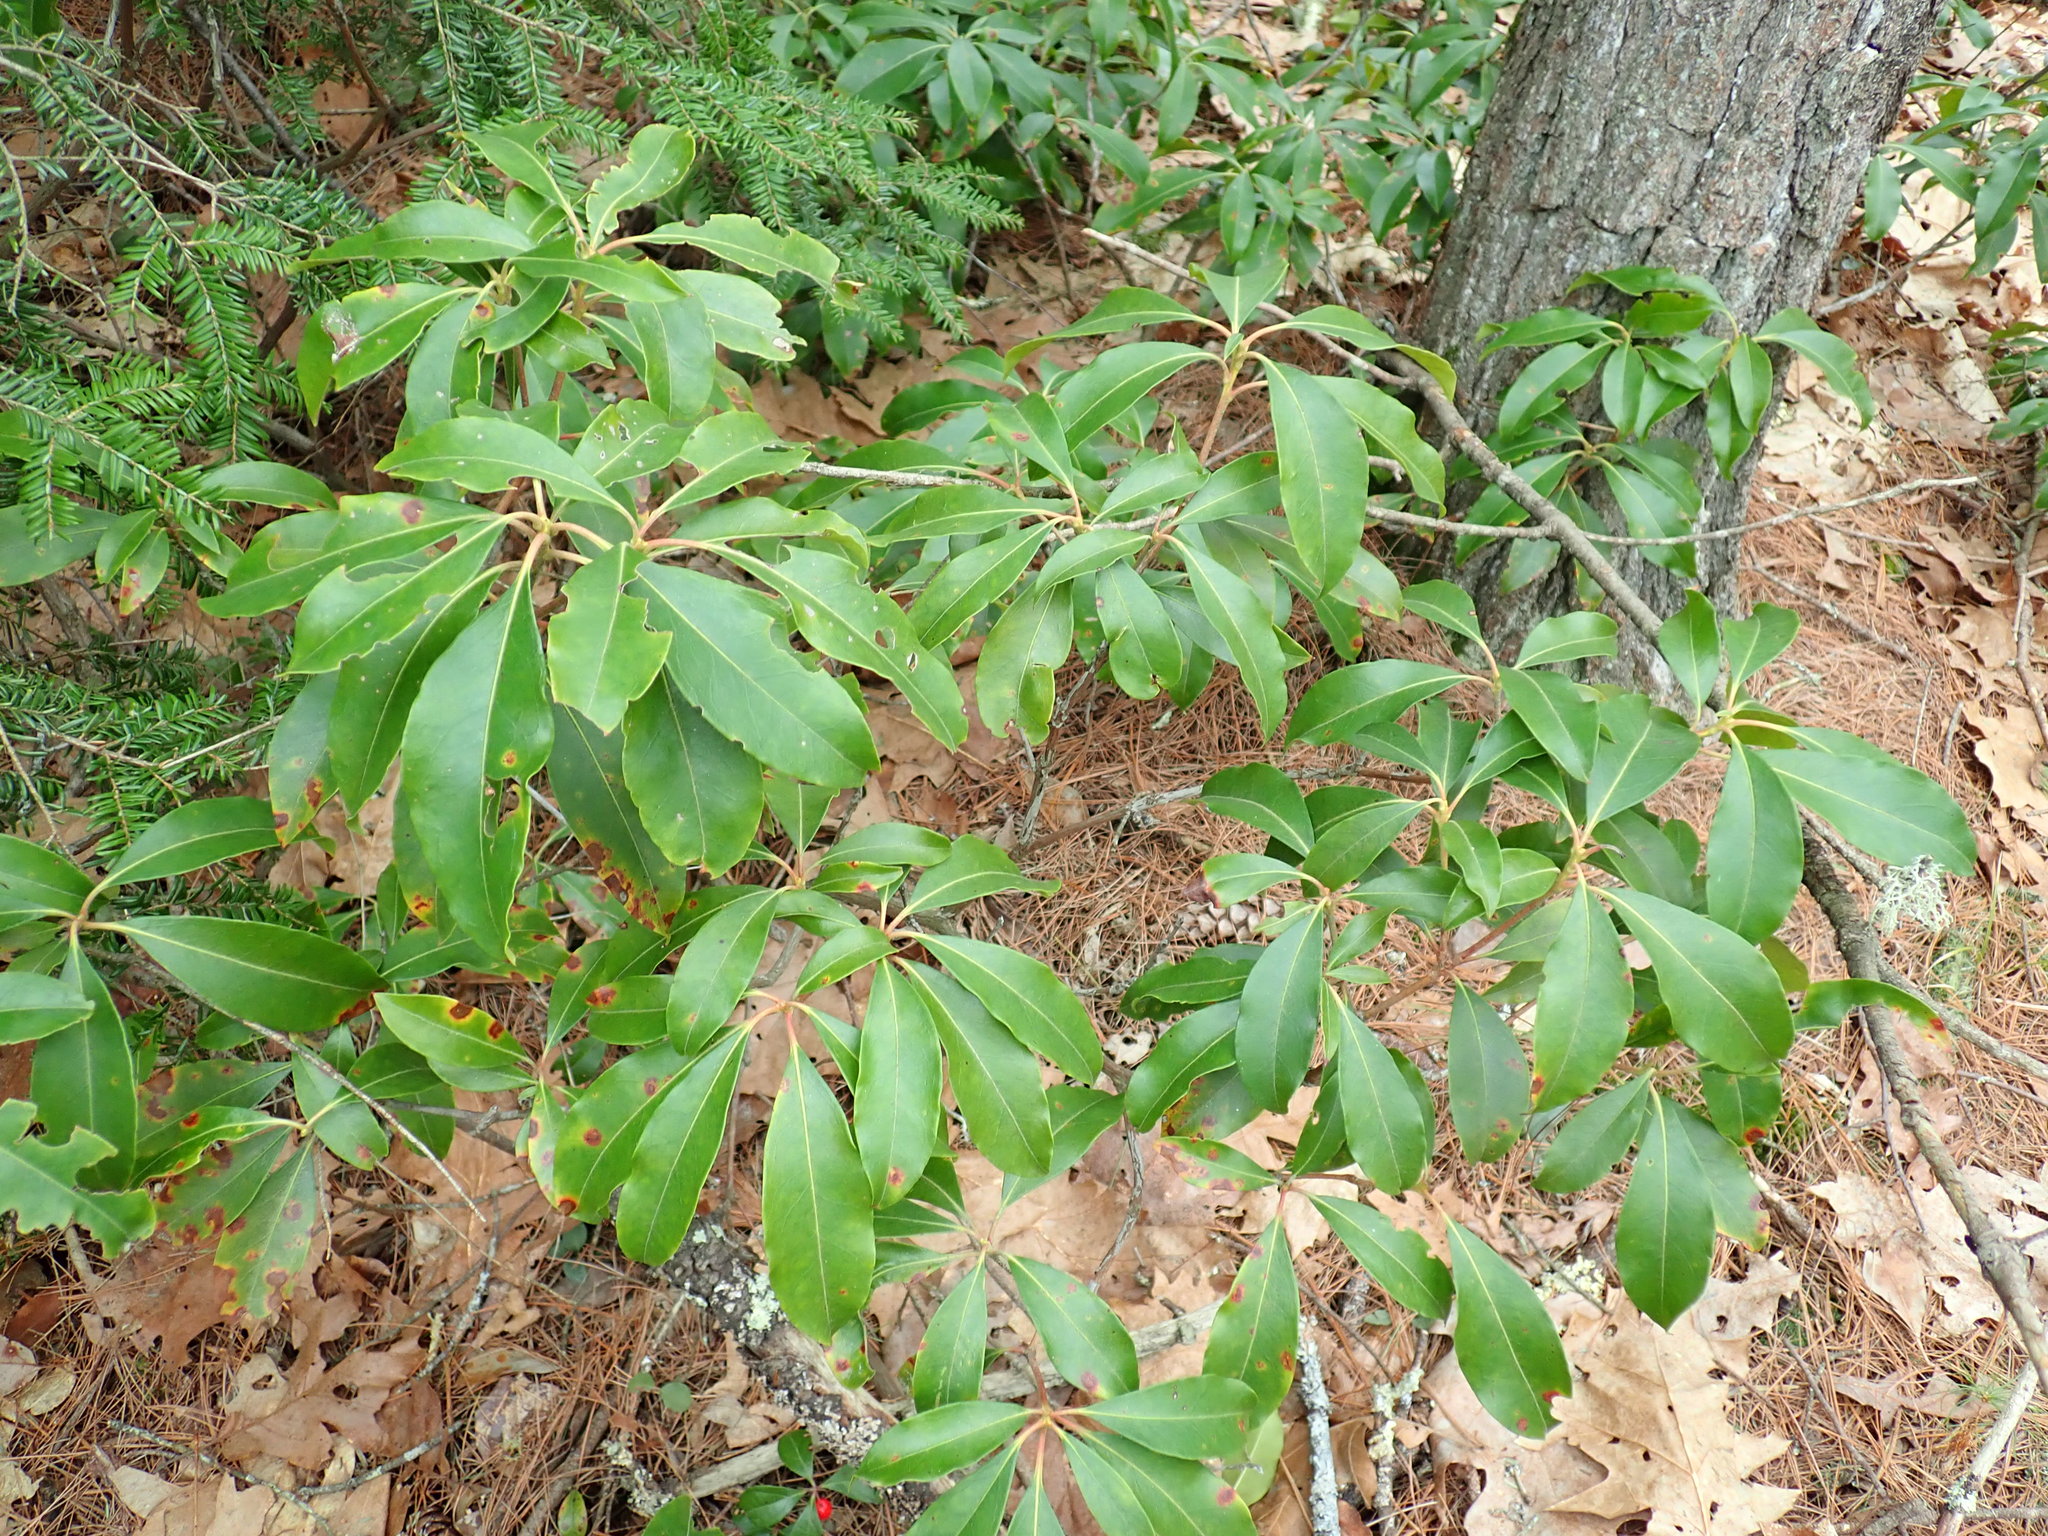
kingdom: Plantae
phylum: Tracheophyta
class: Magnoliopsida
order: Ericales
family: Ericaceae
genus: Kalmia
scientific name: Kalmia latifolia
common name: Mountain-laurel
